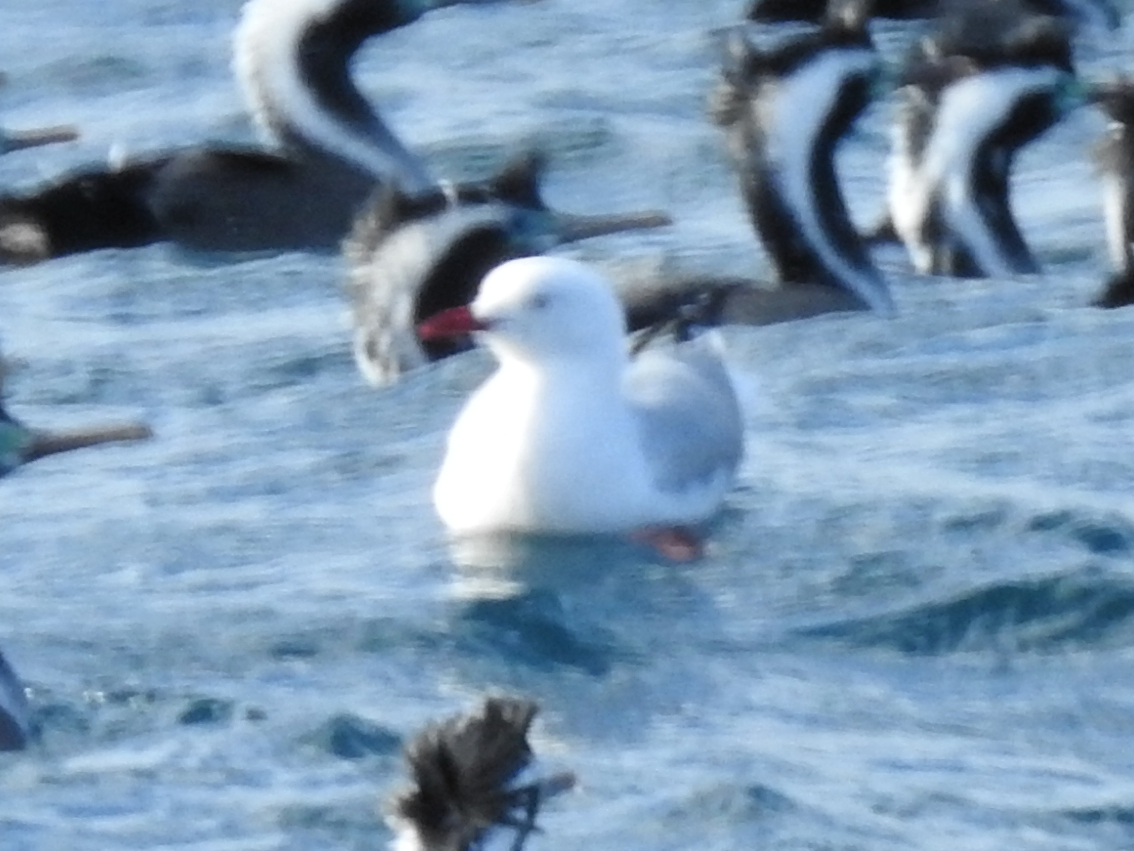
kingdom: Animalia
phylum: Chordata
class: Aves
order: Charadriiformes
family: Laridae
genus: Chroicocephalus
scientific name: Chroicocephalus novaehollandiae
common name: Silver gull
